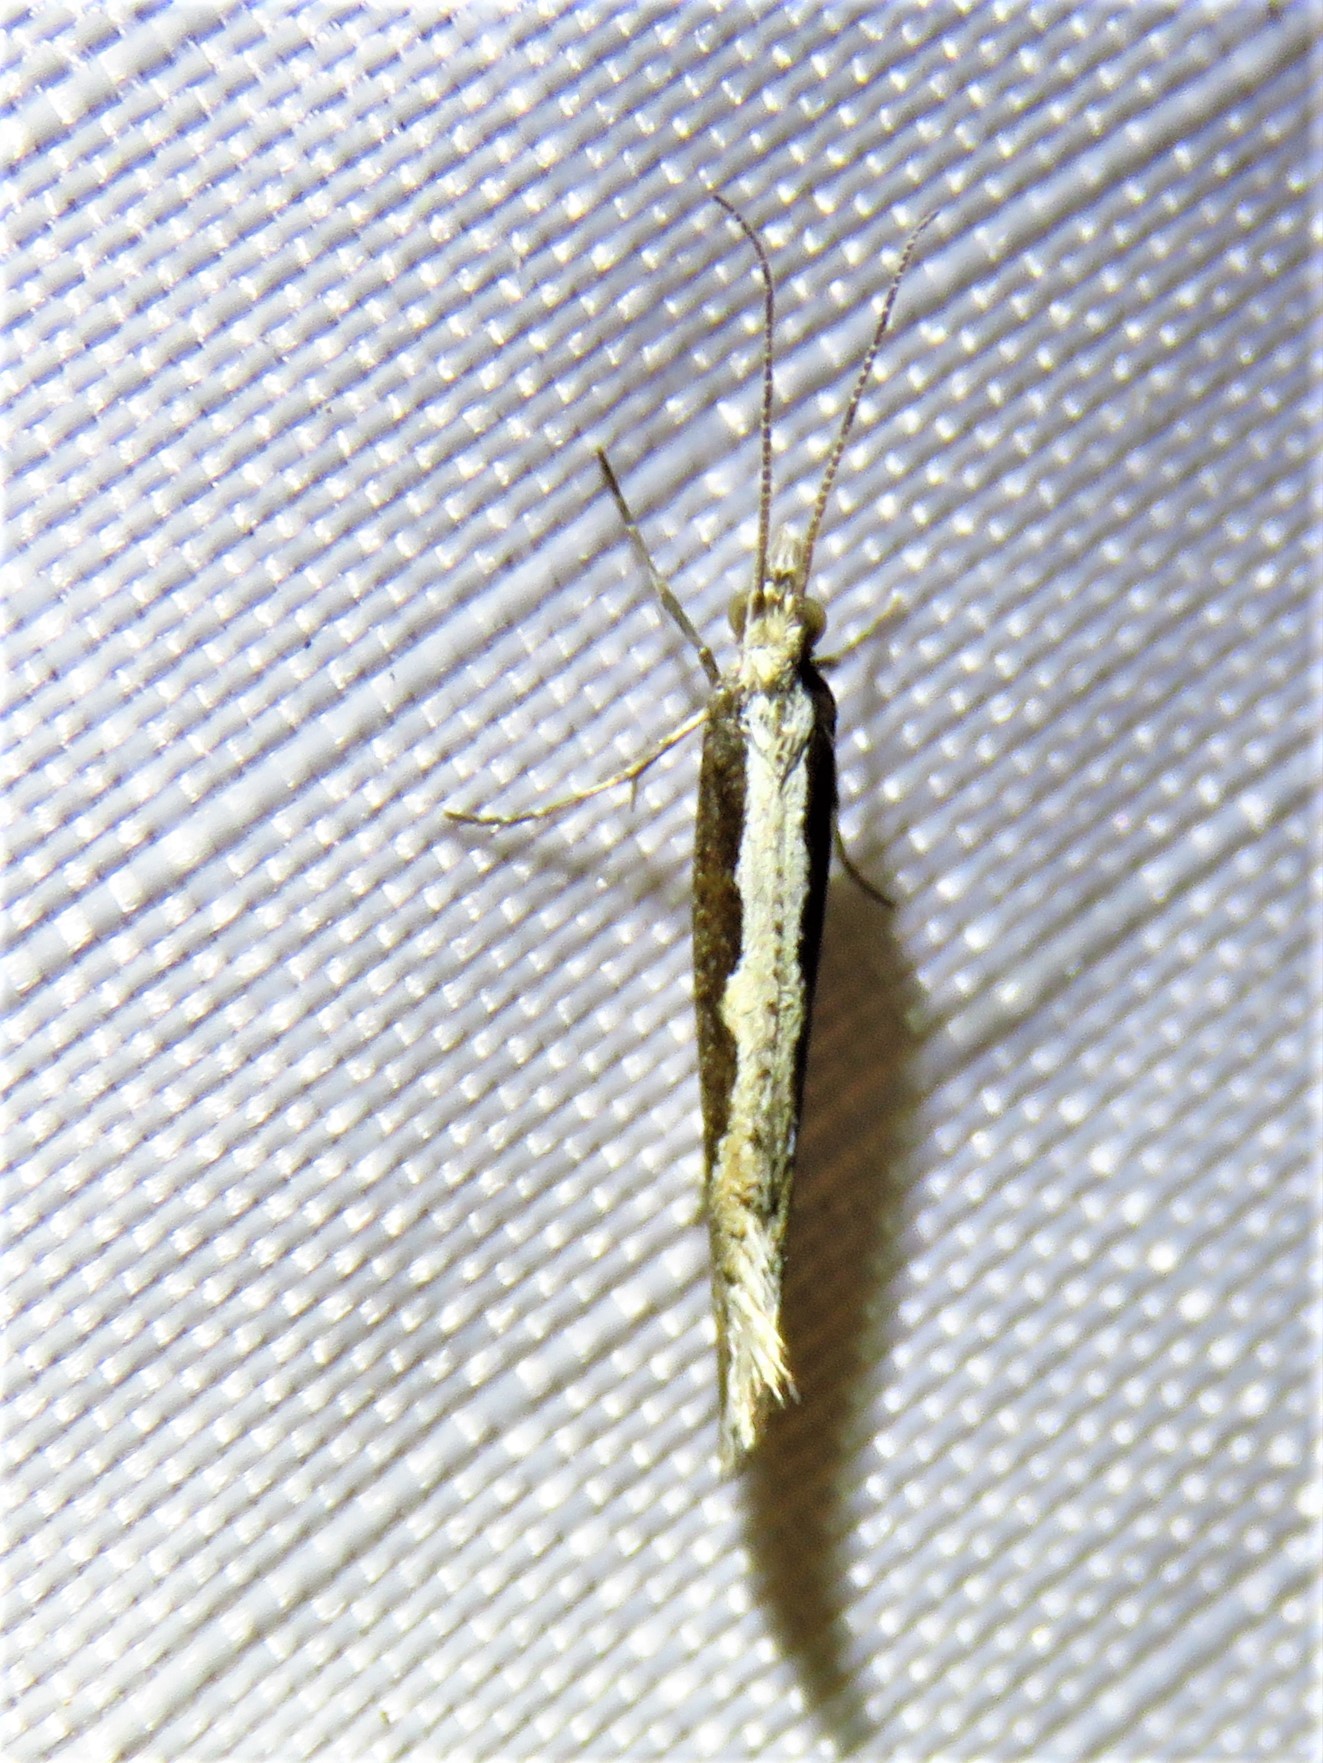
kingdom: Animalia
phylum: Arthropoda
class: Insecta
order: Lepidoptera
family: Plutellidae
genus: Plutella
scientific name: Plutella xylostella
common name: Diamond-back moth
